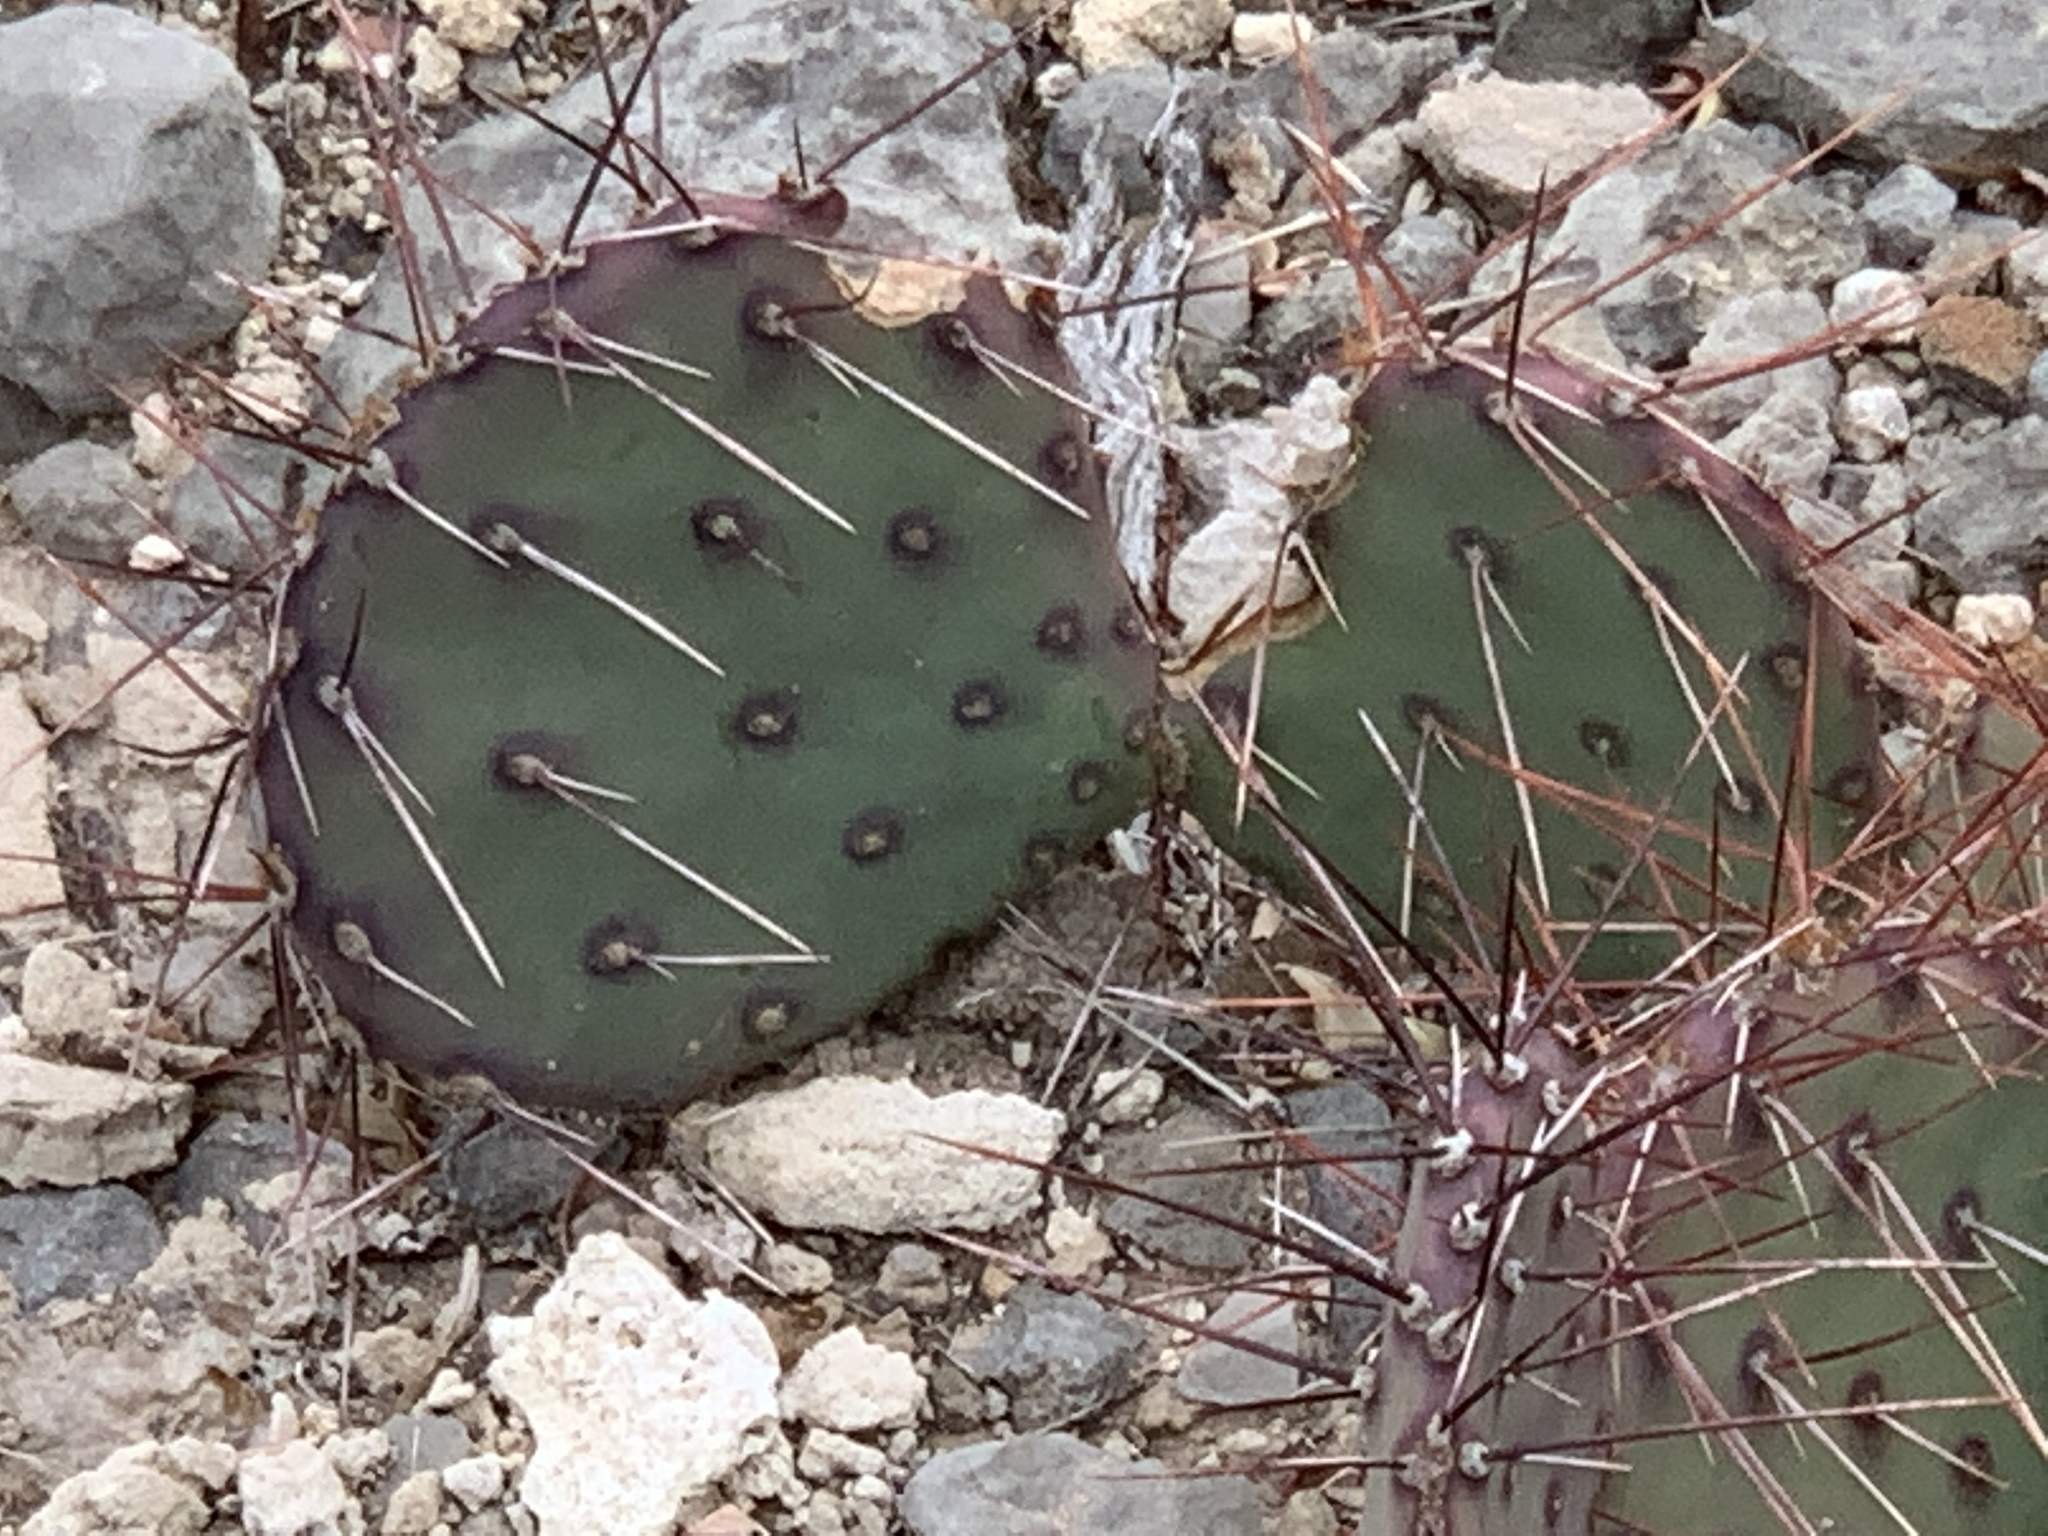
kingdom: Plantae
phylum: Tracheophyta
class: Magnoliopsida
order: Caryophyllales
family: Cactaceae
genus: Opuntia
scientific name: Opuntia macrocentra
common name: Purple prickly-pear
